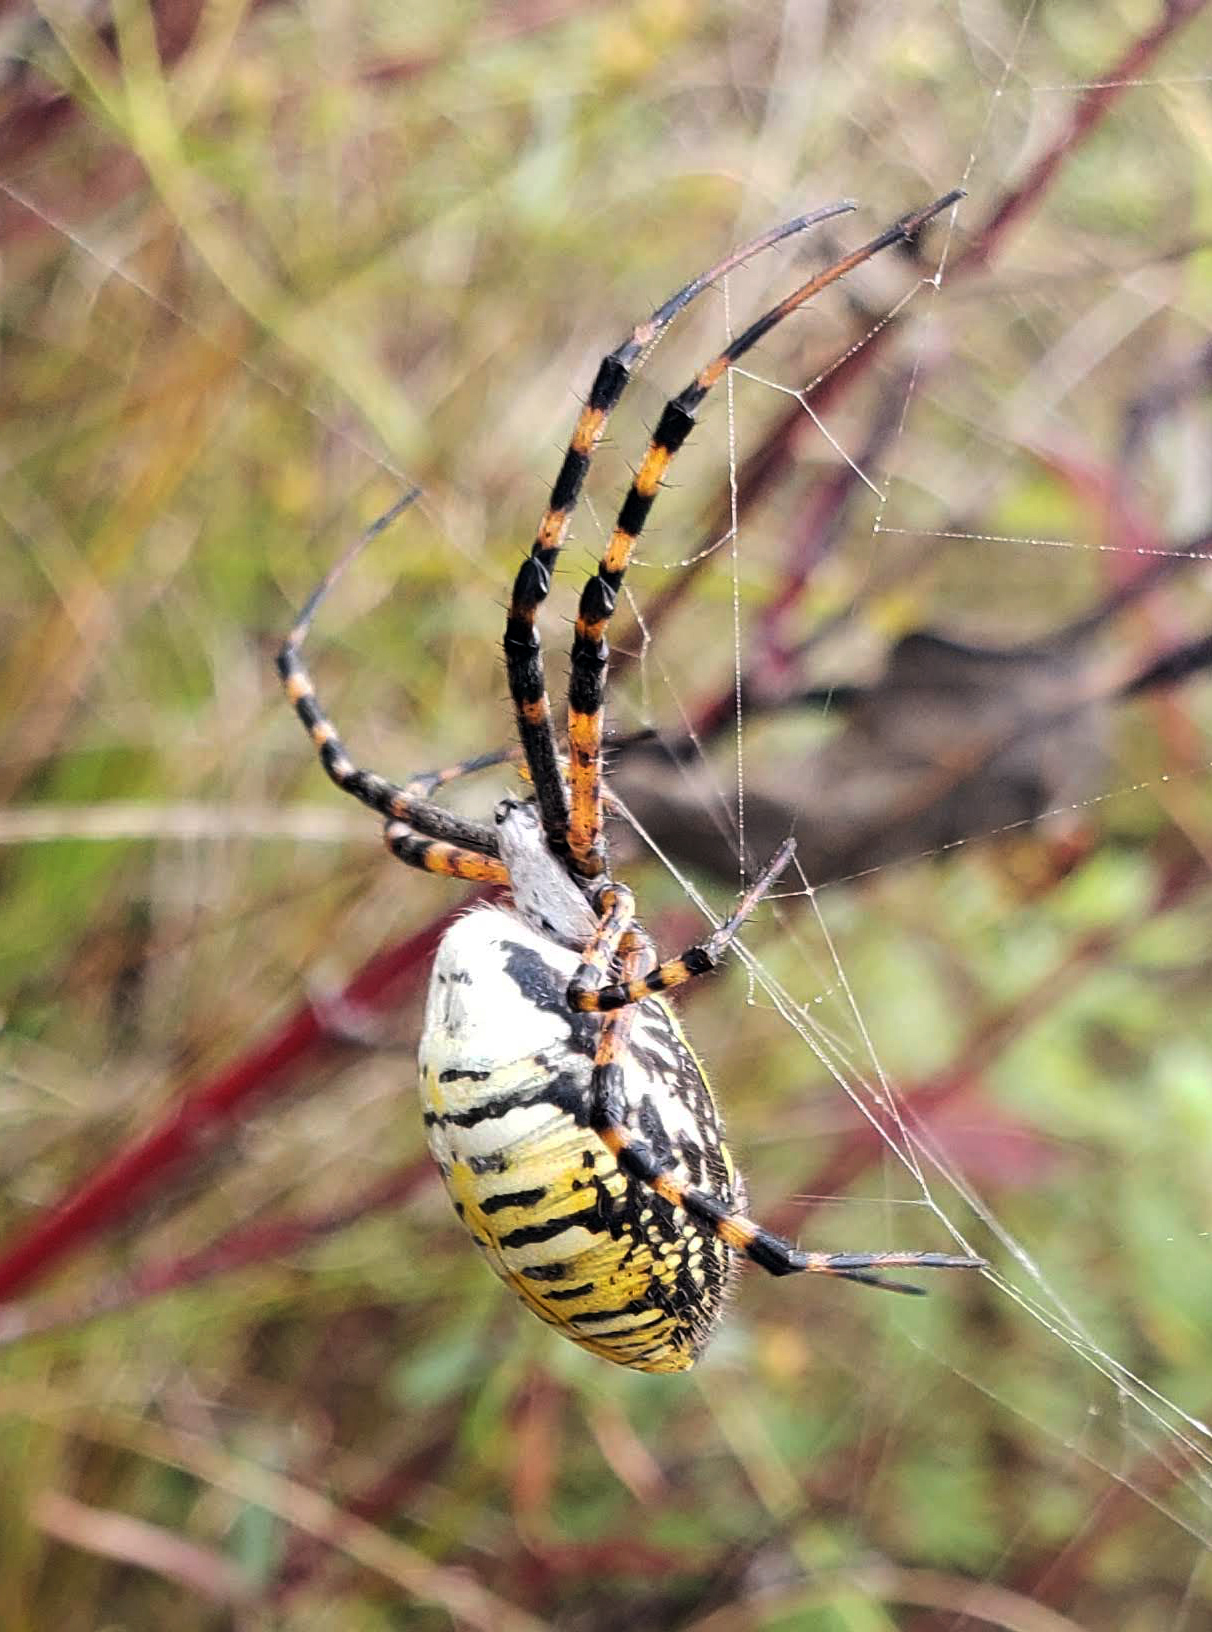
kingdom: Animalia
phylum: Arthropoda
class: Arachnida
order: Araneae
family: Araneidae
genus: Argiope
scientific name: Argiope trifasciata
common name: Banded garden spider
